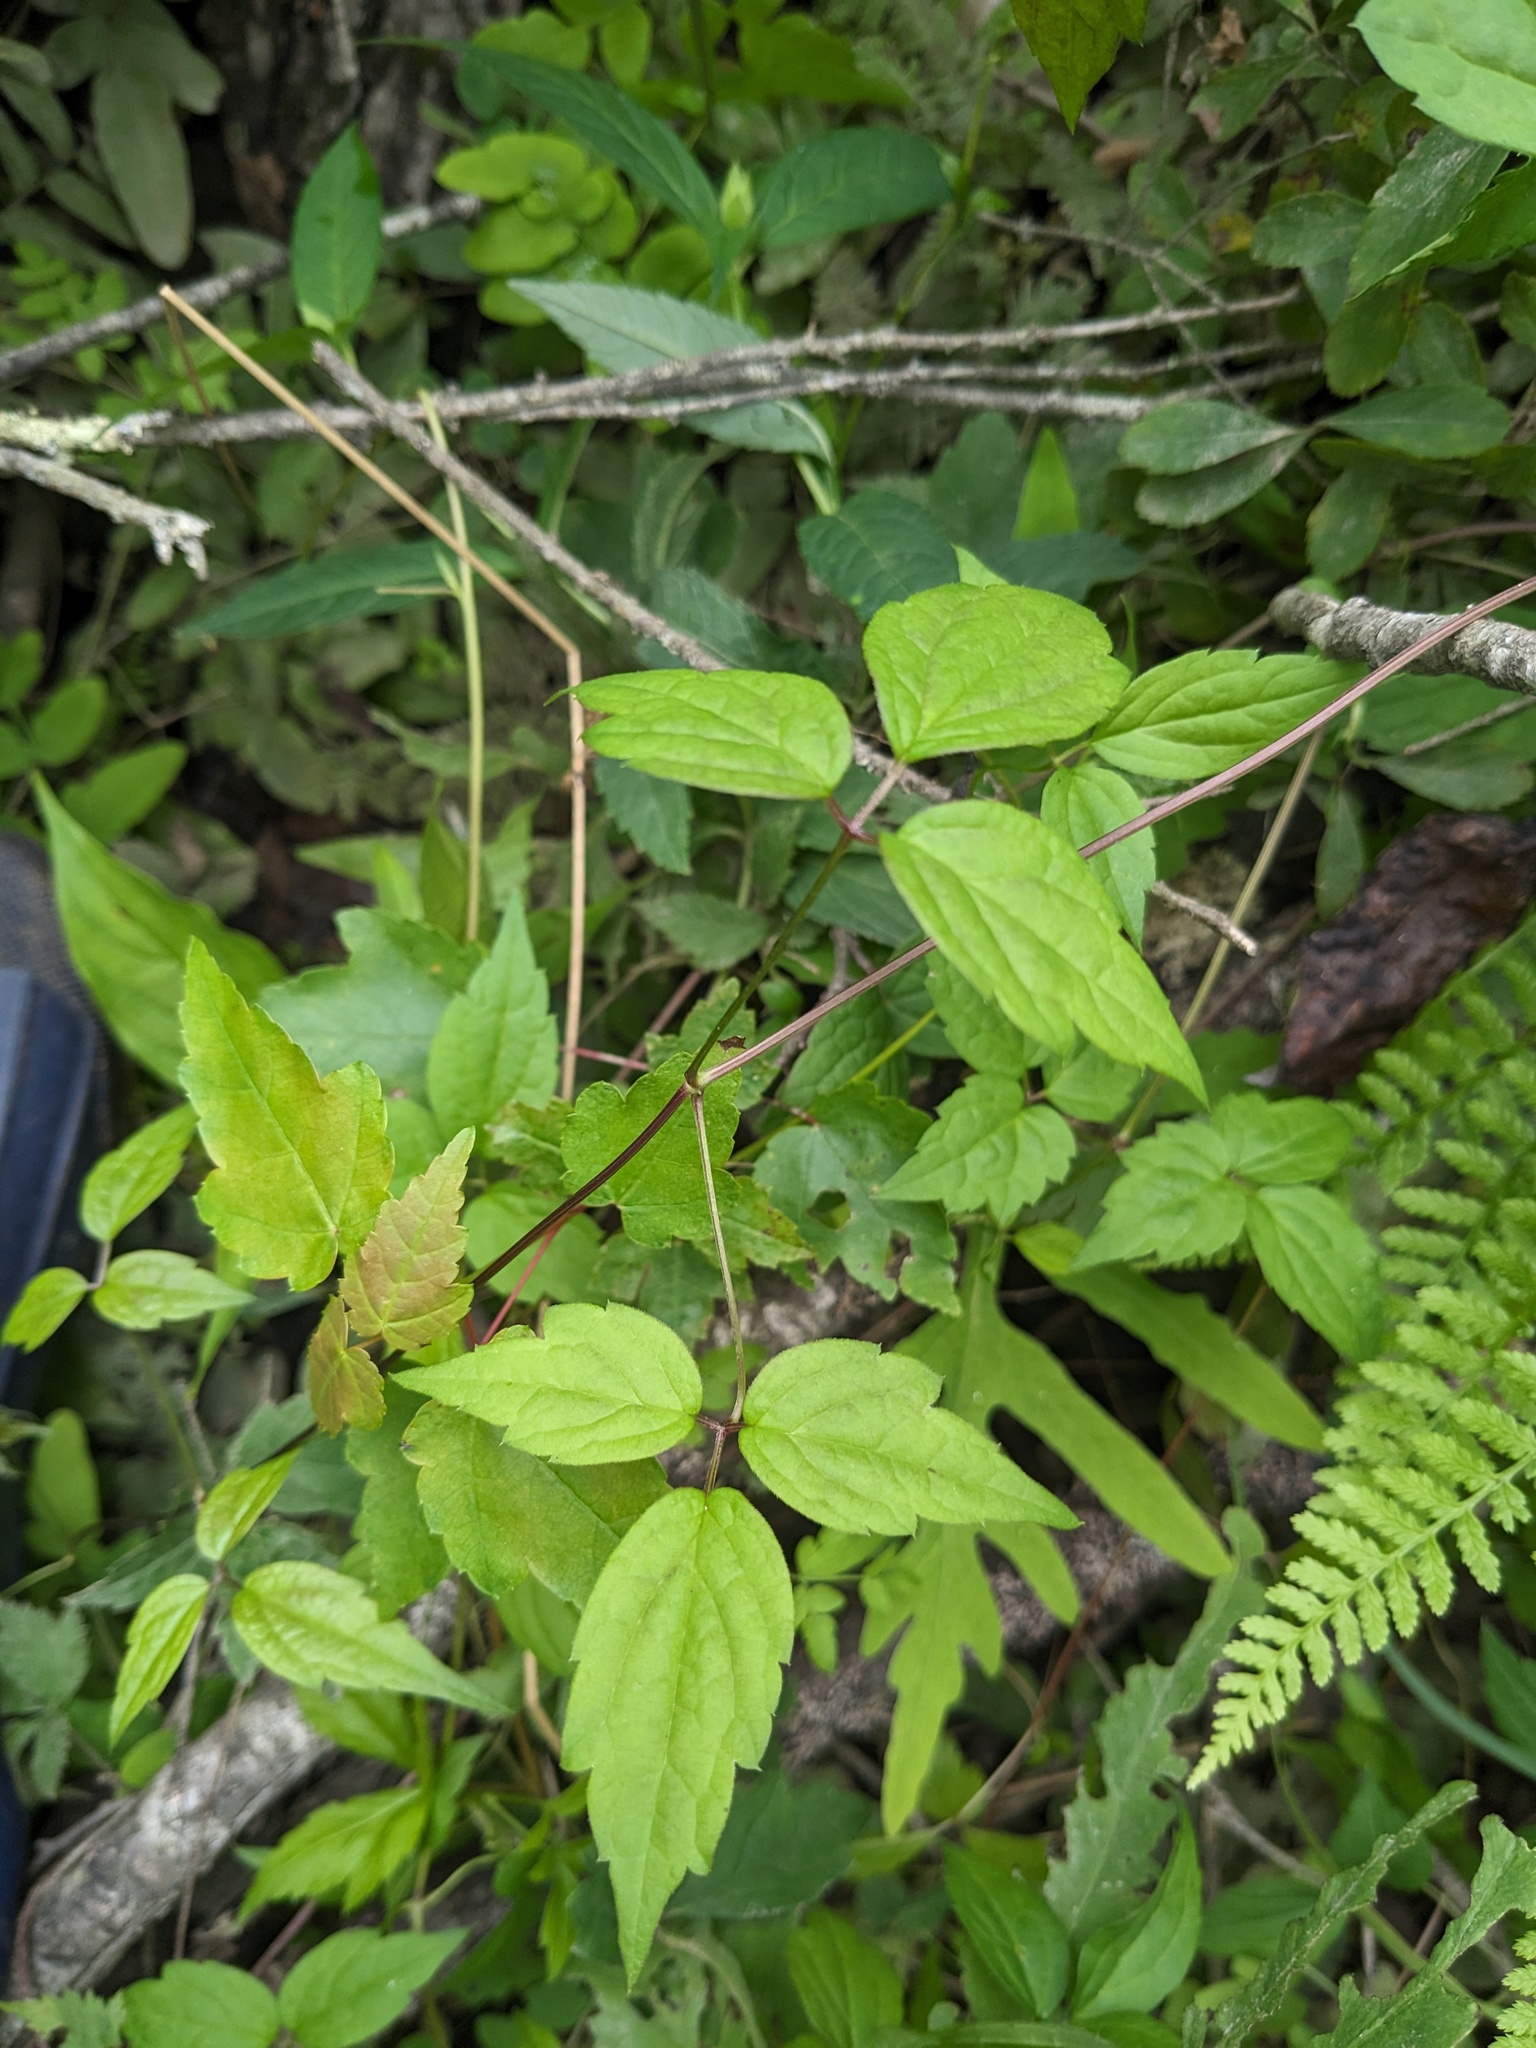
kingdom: Plantae
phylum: Tracheophyta
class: Magnoliopsida
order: Ranunculales
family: Ranunculaceae
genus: Clematis
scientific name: Clematis virginiana
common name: Virgin's-bower
